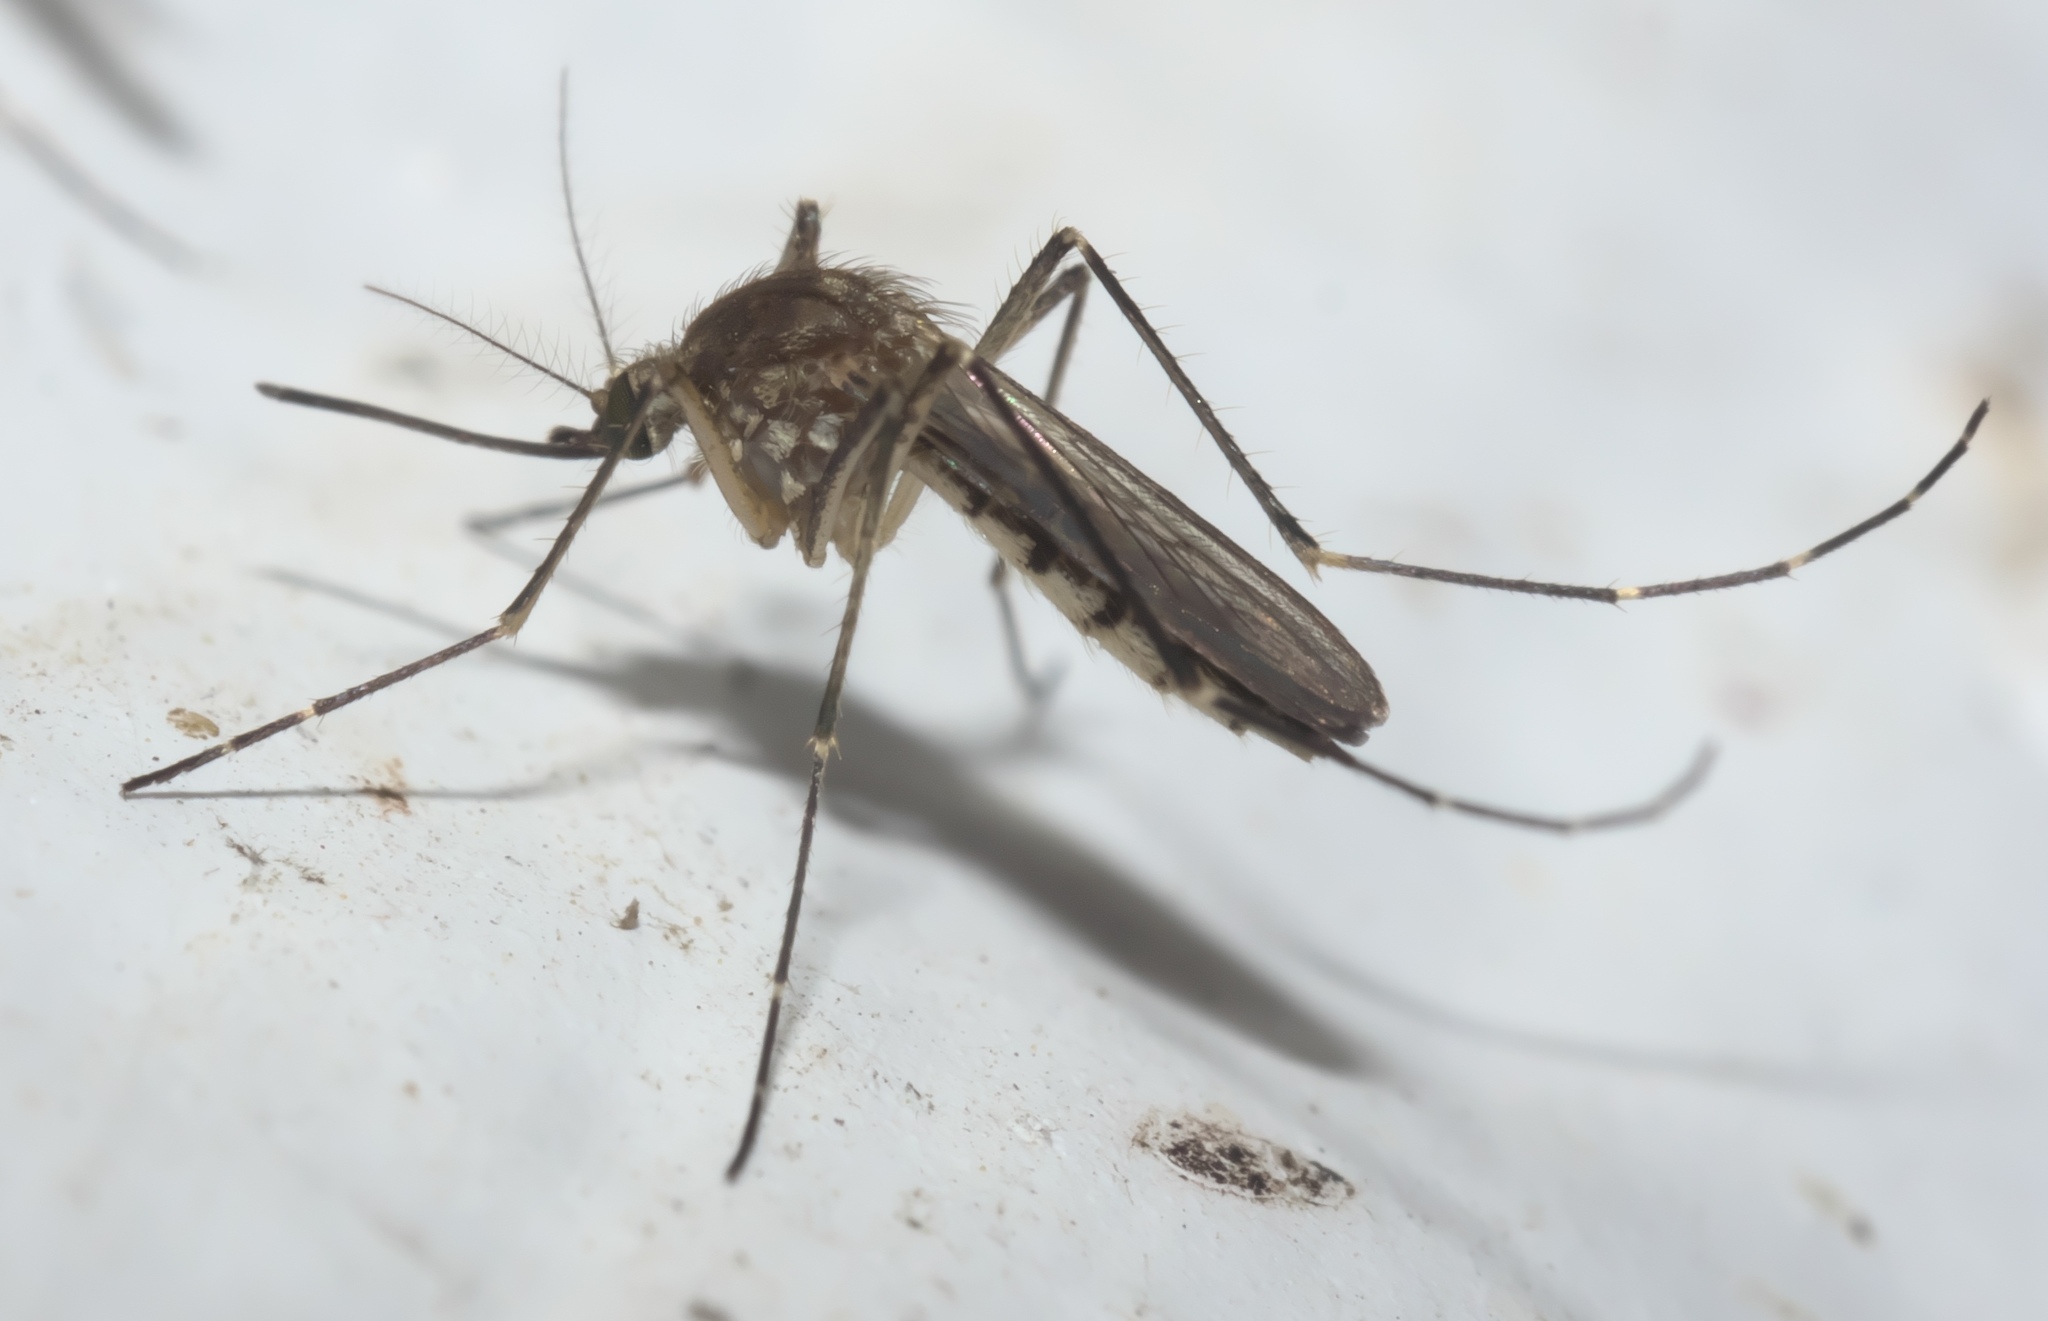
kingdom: Animalia
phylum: Arthropoda
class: Insecta
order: Diptera
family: Culicidae
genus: Aedes
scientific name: Aedes vexans
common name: Inland floodwater mosquito
